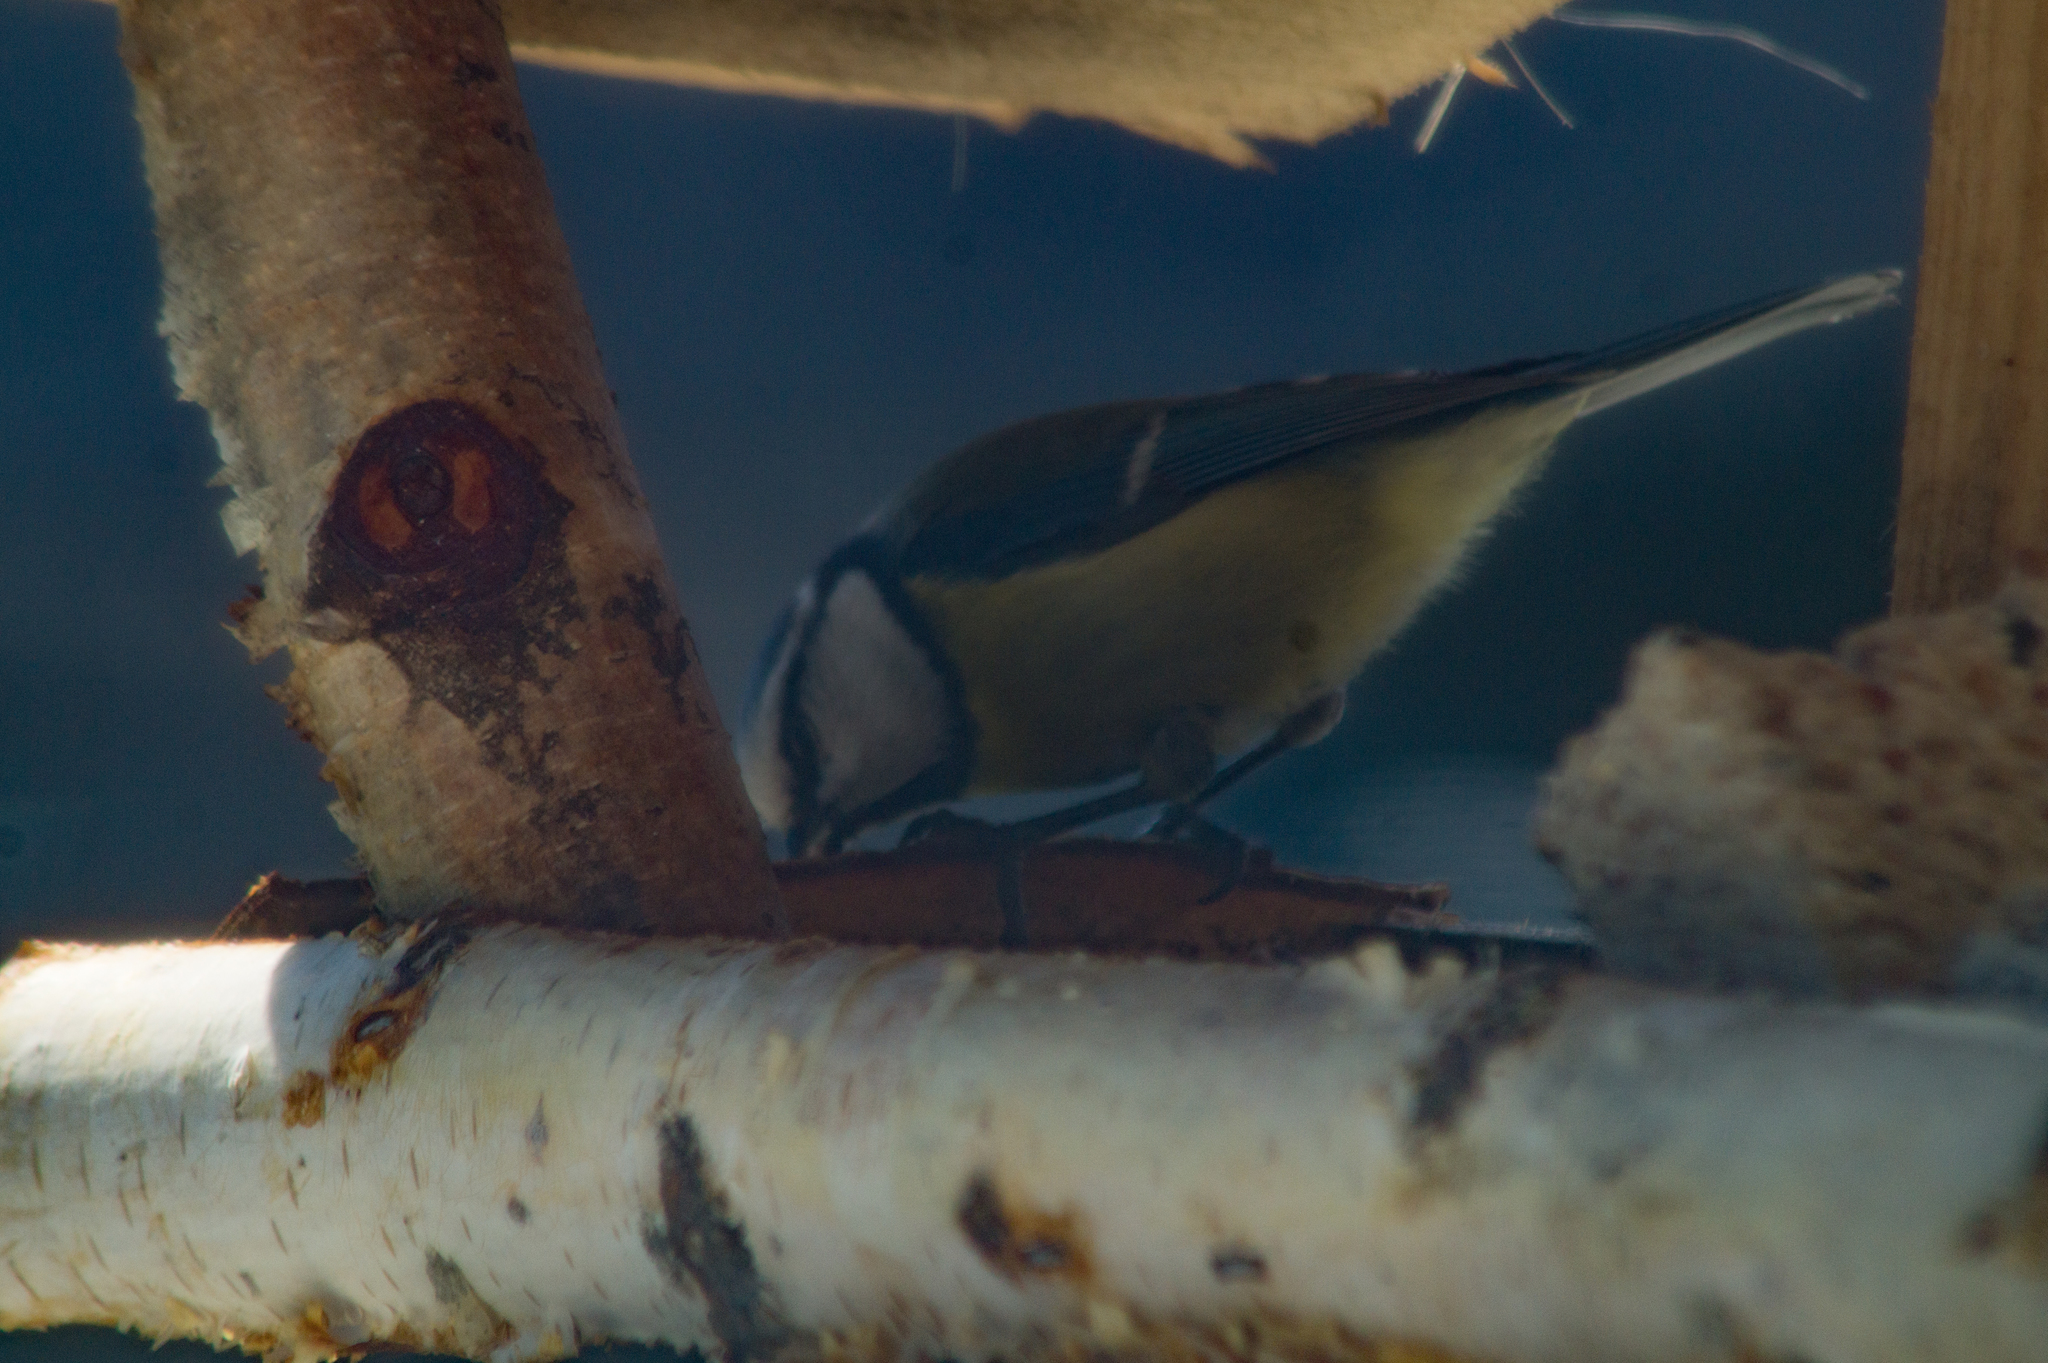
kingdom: Animalia
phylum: Chordata
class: Aves
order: Passeriformes
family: Paridae
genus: Cyanistes
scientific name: Cyanistes caeruleus
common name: Eurasian blue tit
